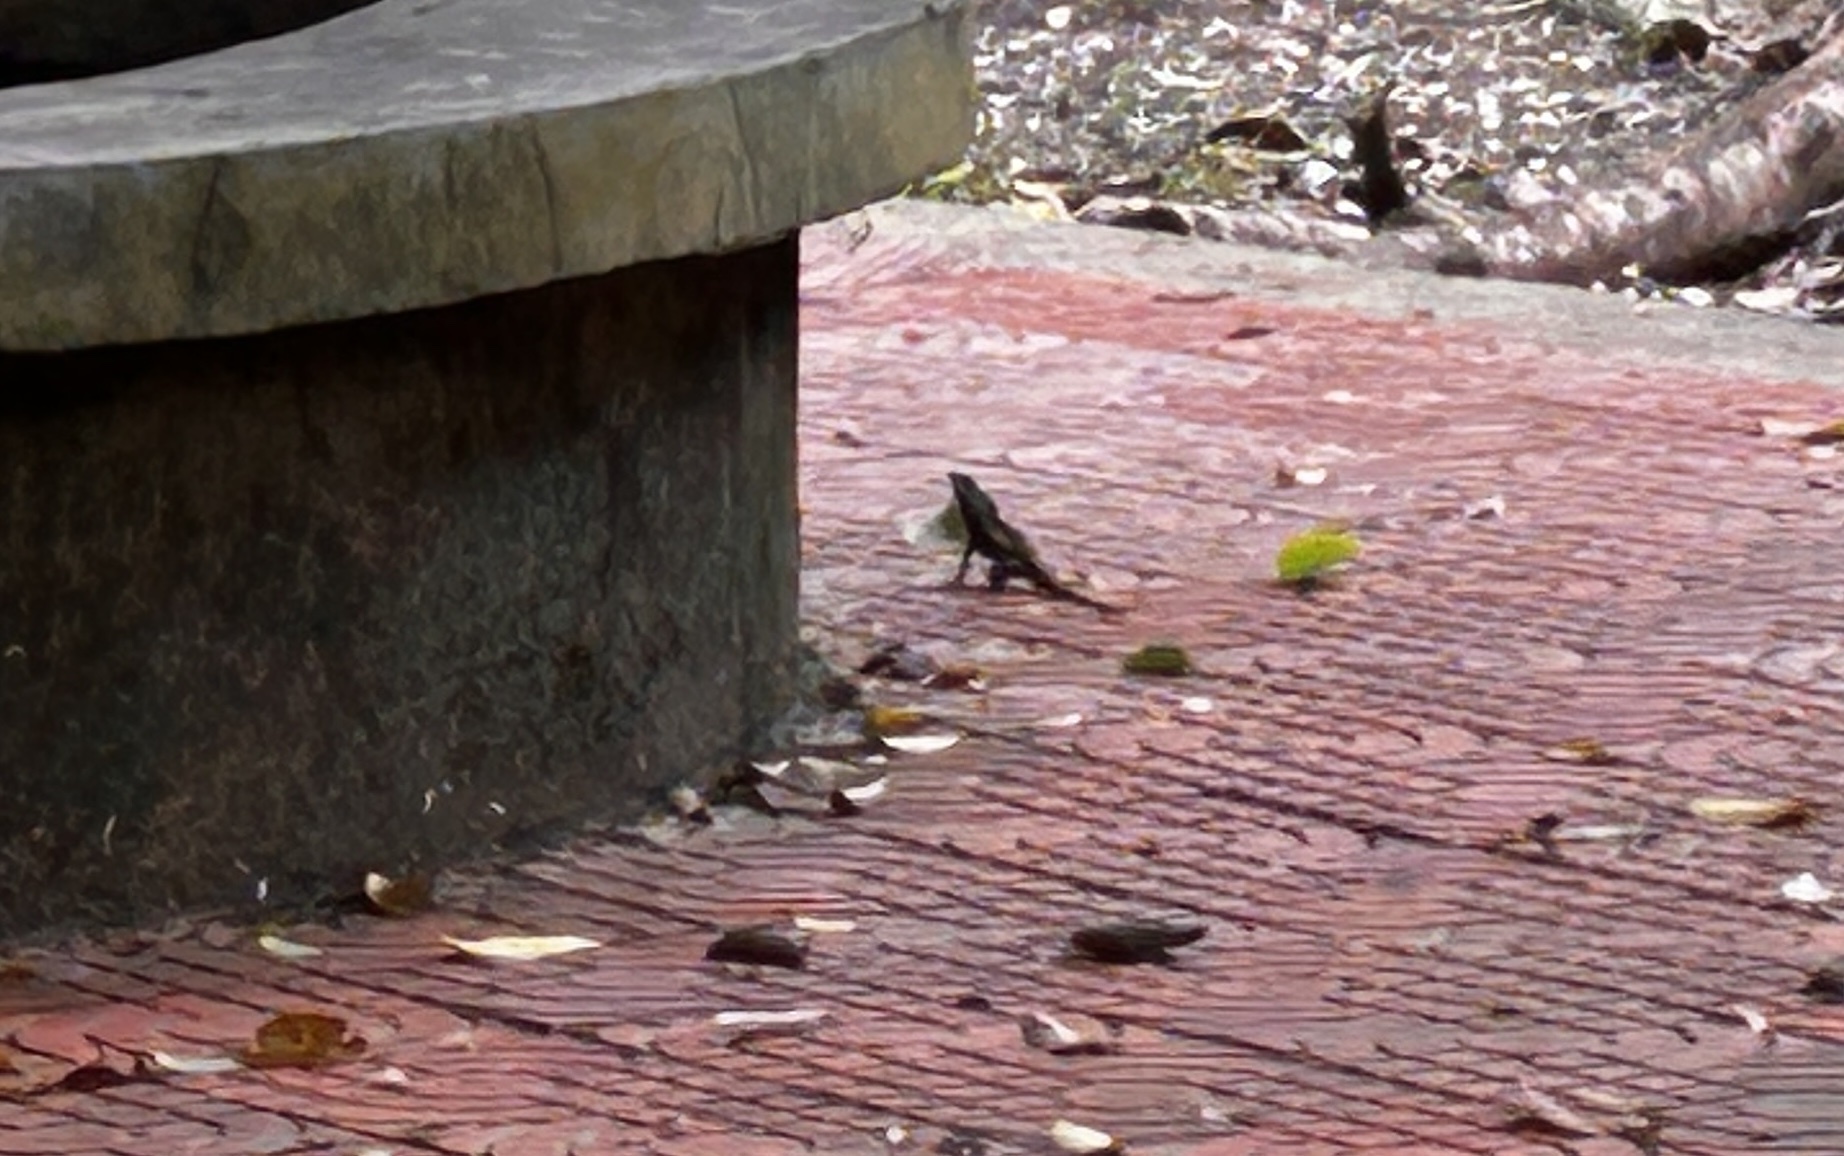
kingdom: Animalia
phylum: Chordata
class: Squamata
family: Agamidae
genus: Calotes
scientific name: Calotes mystaceus
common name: Indo-chinese forest lizard
